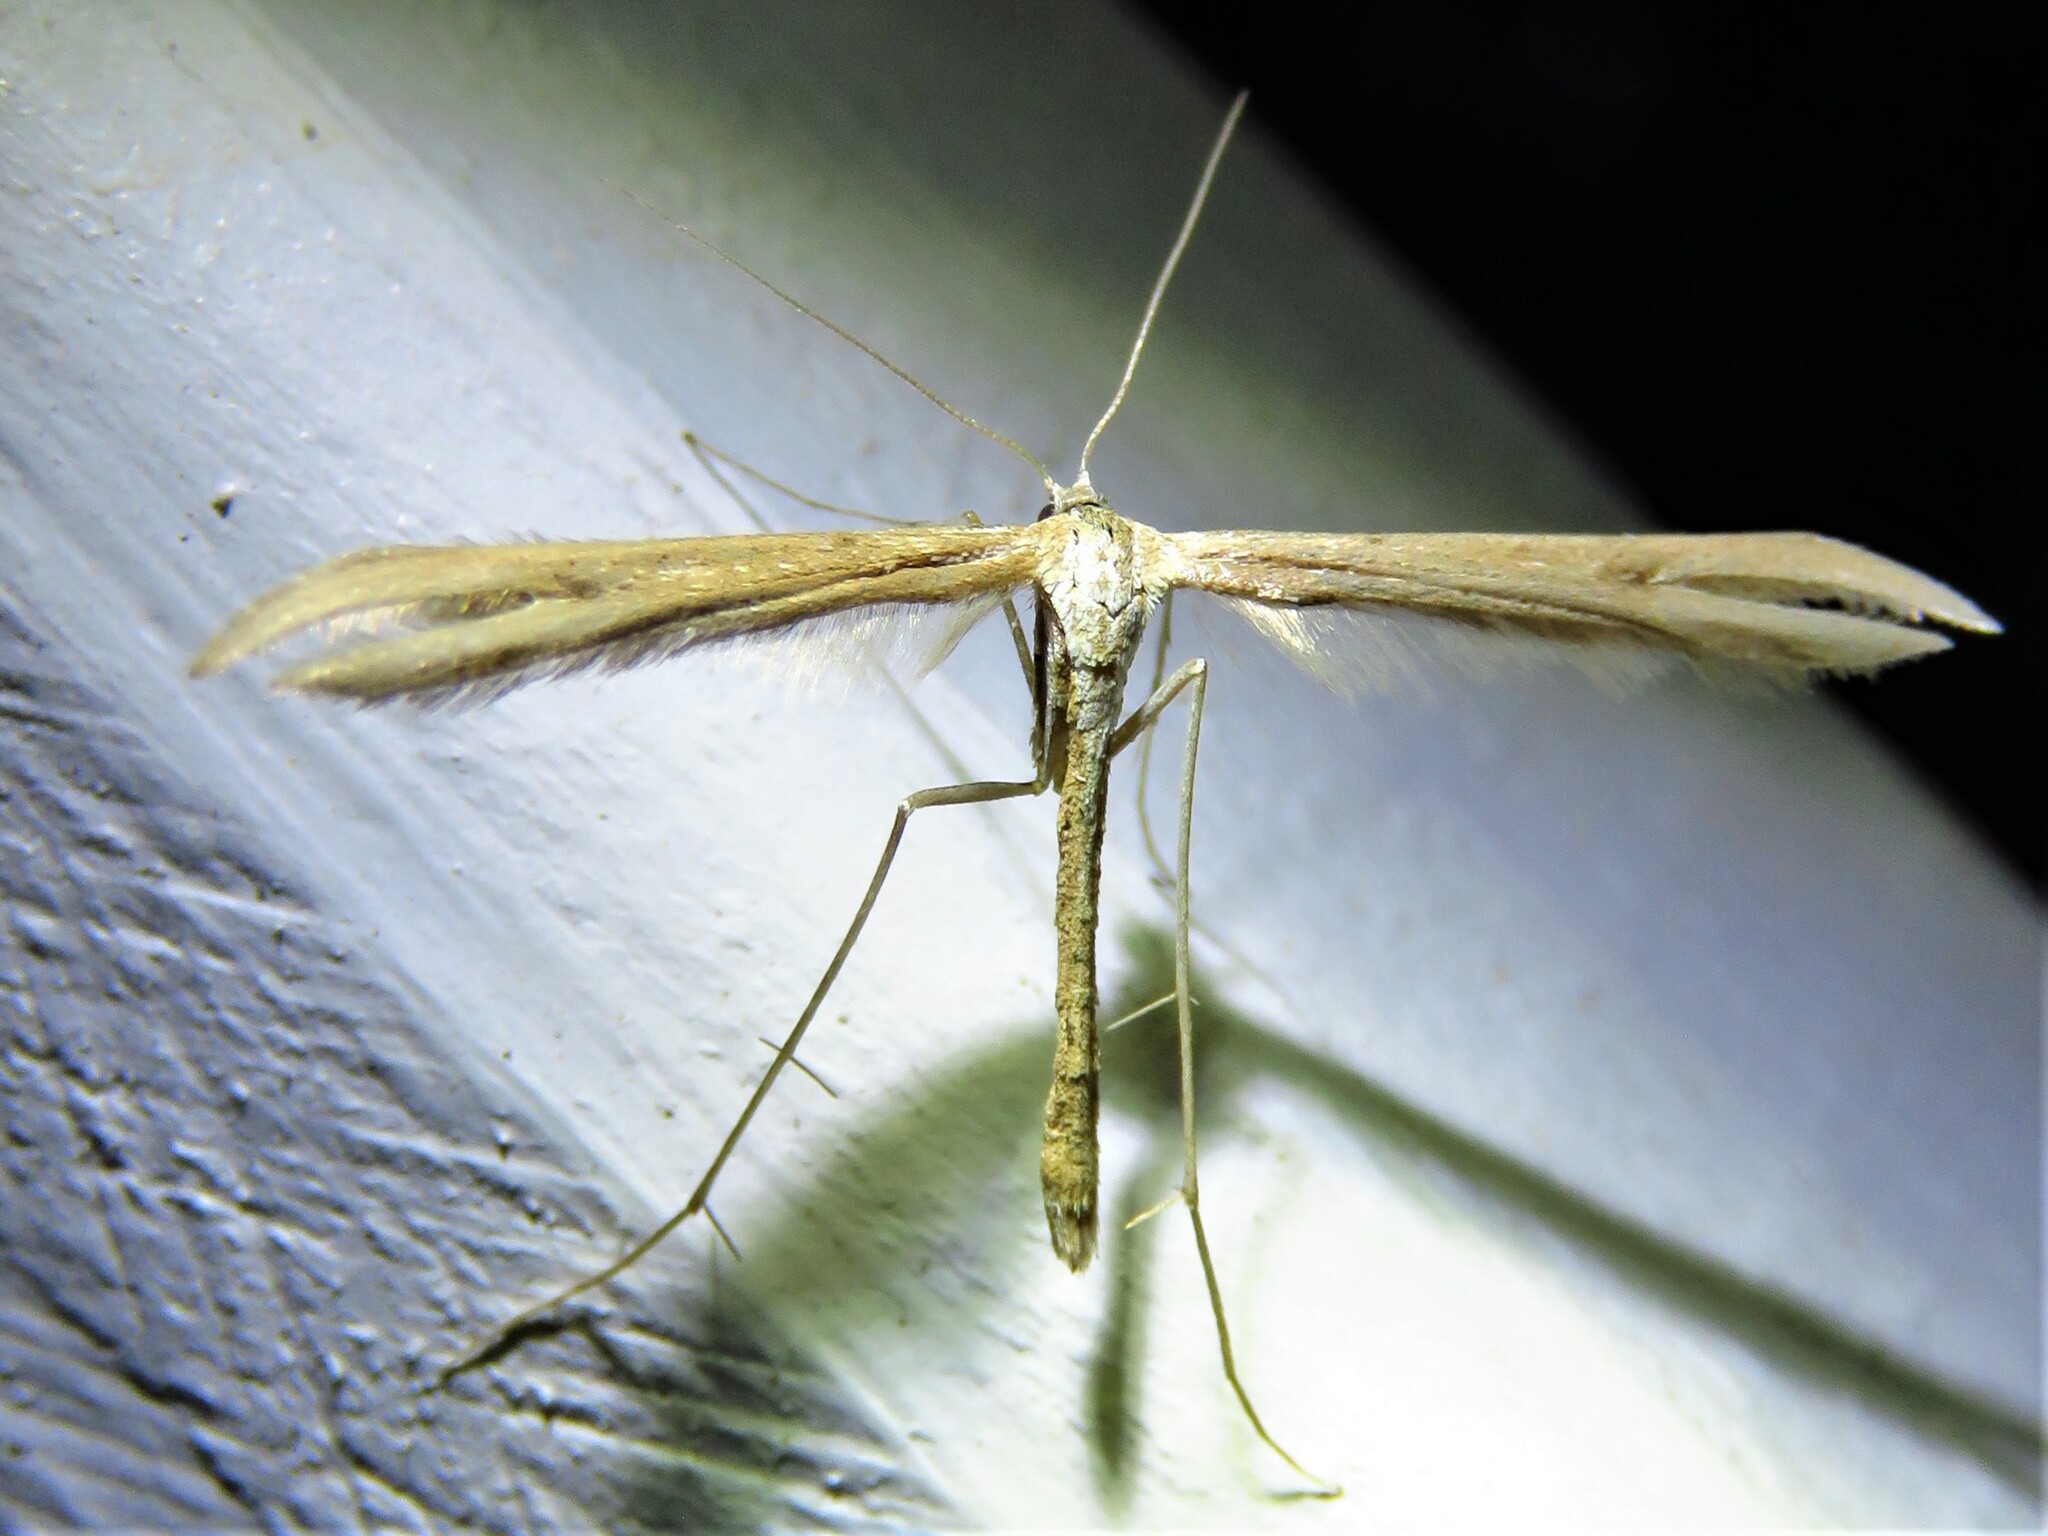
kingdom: Animalia
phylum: Arthropoda
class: Insecta
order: Lepidoptera
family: Pterophoridae
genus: Emmelina
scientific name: Emmelina monodactyla
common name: Common plume
